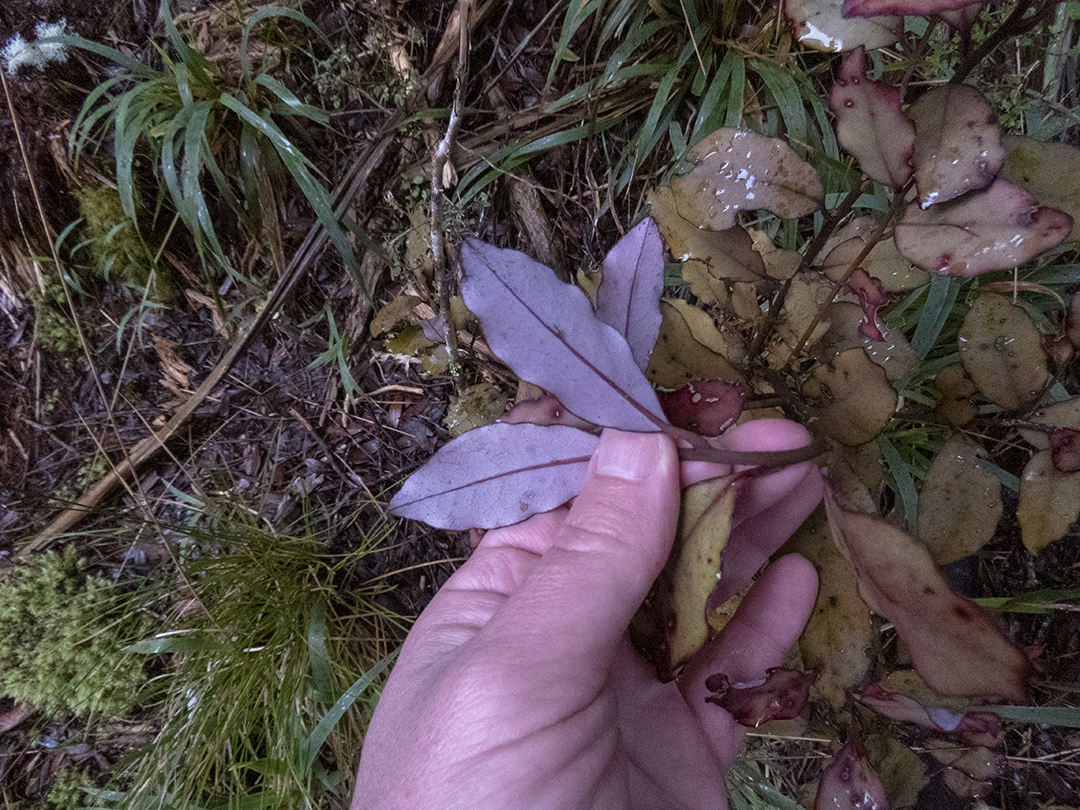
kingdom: Plantae
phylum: Tracheophyta
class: Magnoliopsida
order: Canellales
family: Winteraceae
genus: Pseudowintera
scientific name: Pseudowintera colorata
